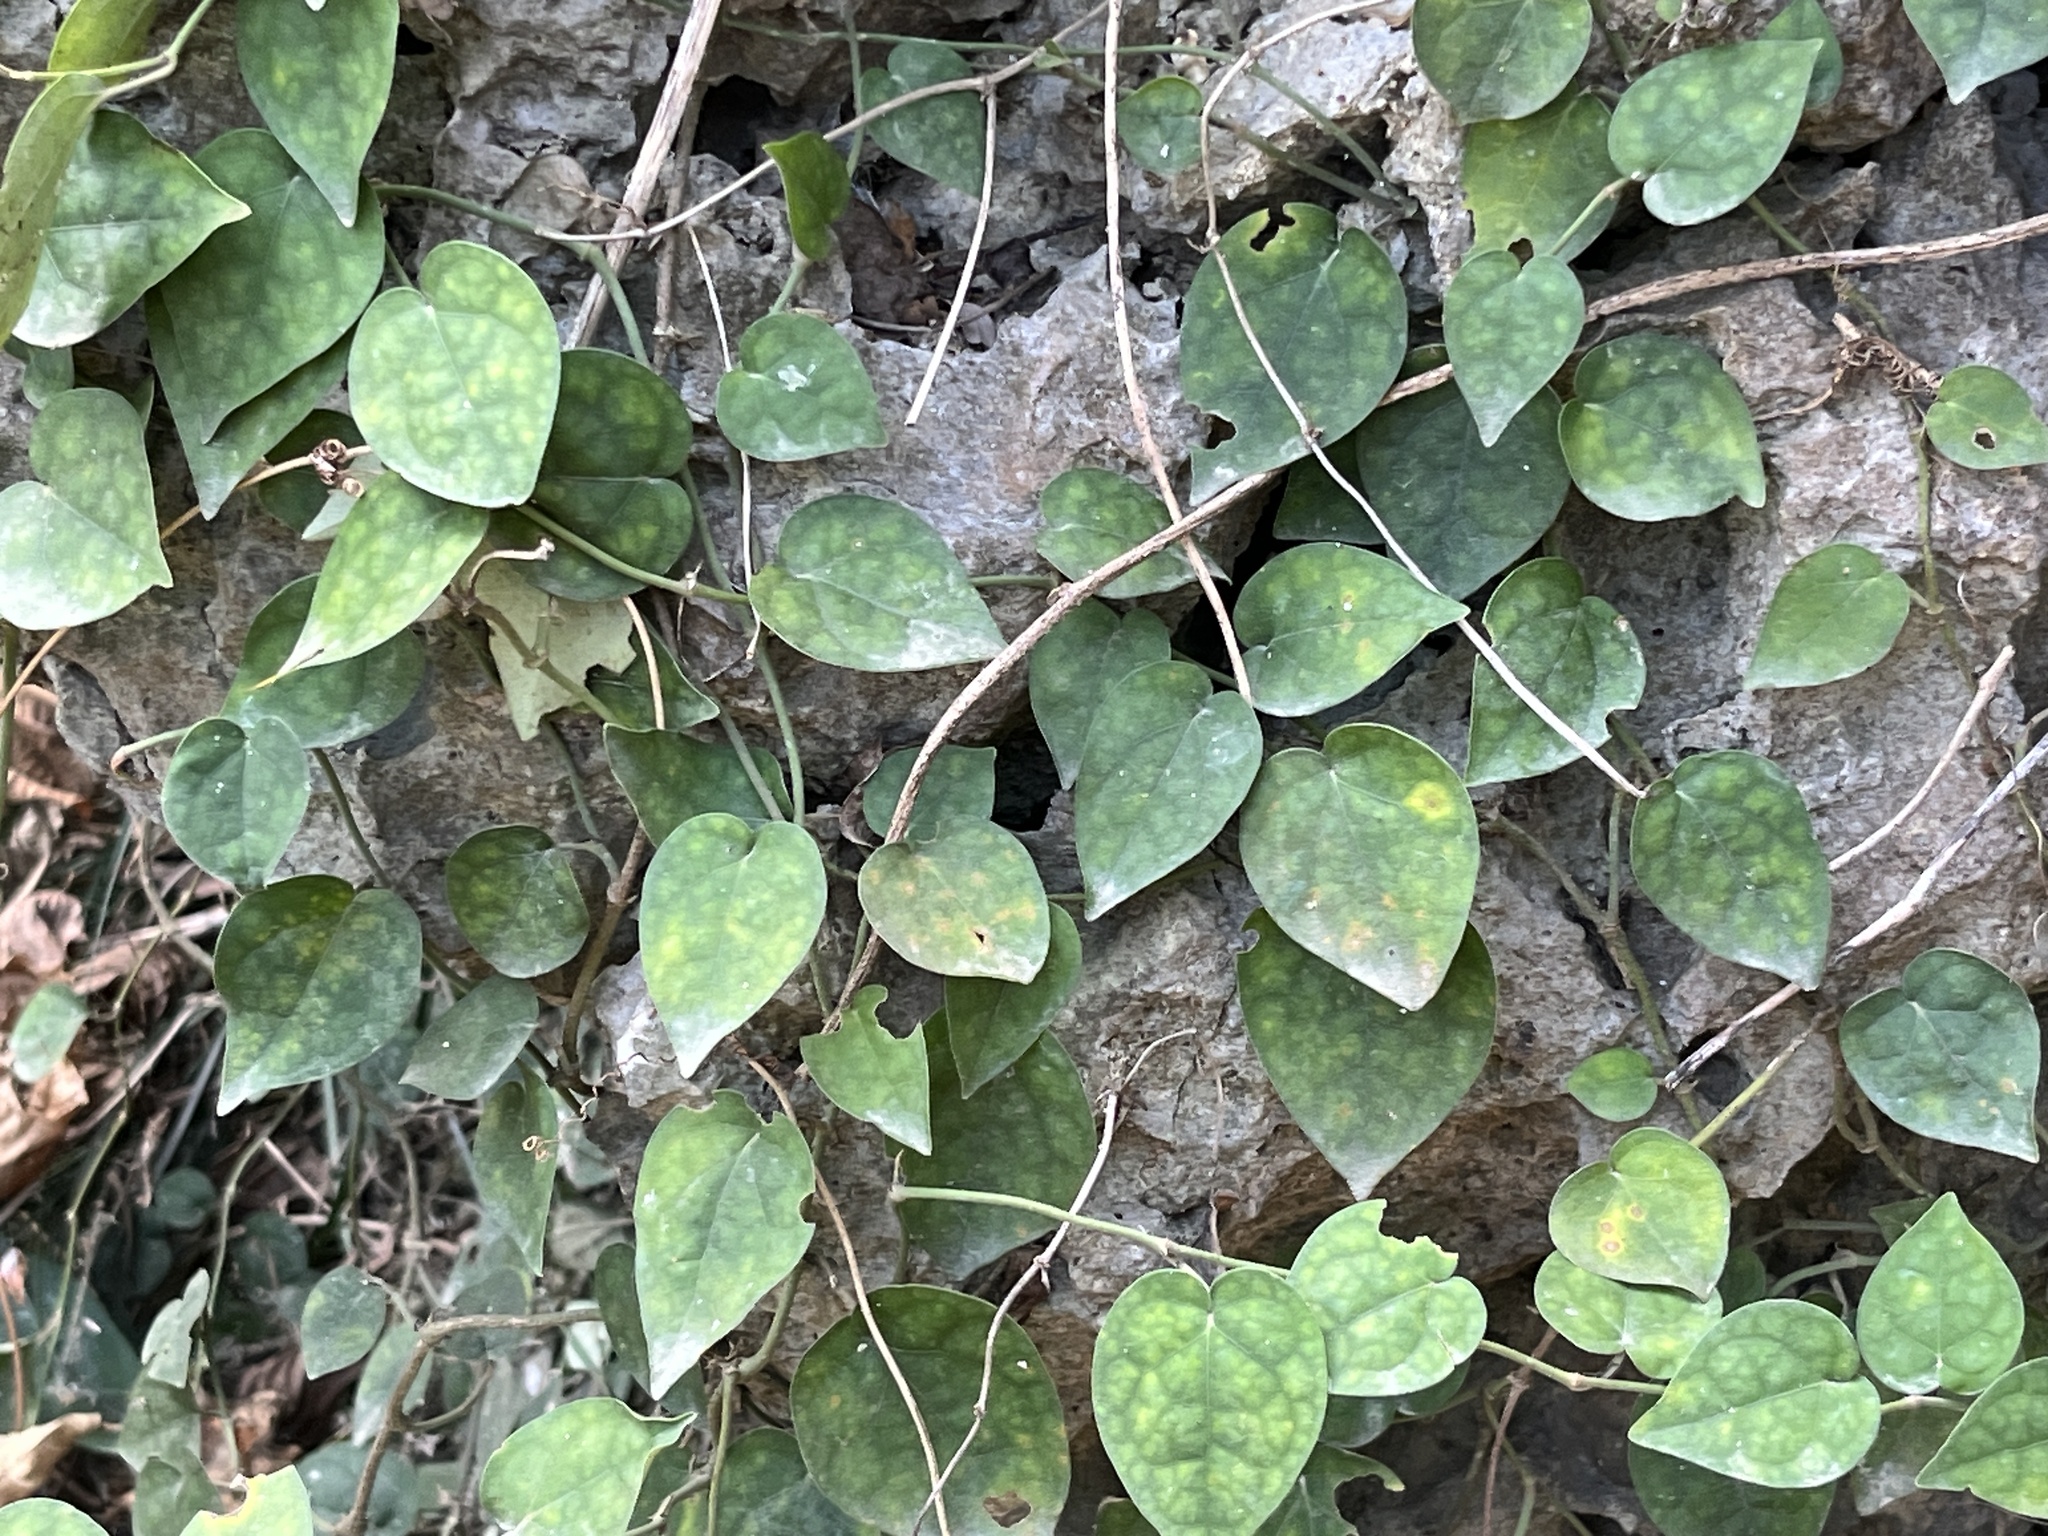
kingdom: Plantae
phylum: Tracheophyta
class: Magnoliopsida
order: Piperales
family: Piperaceae
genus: Piper
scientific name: Piper kadsura
